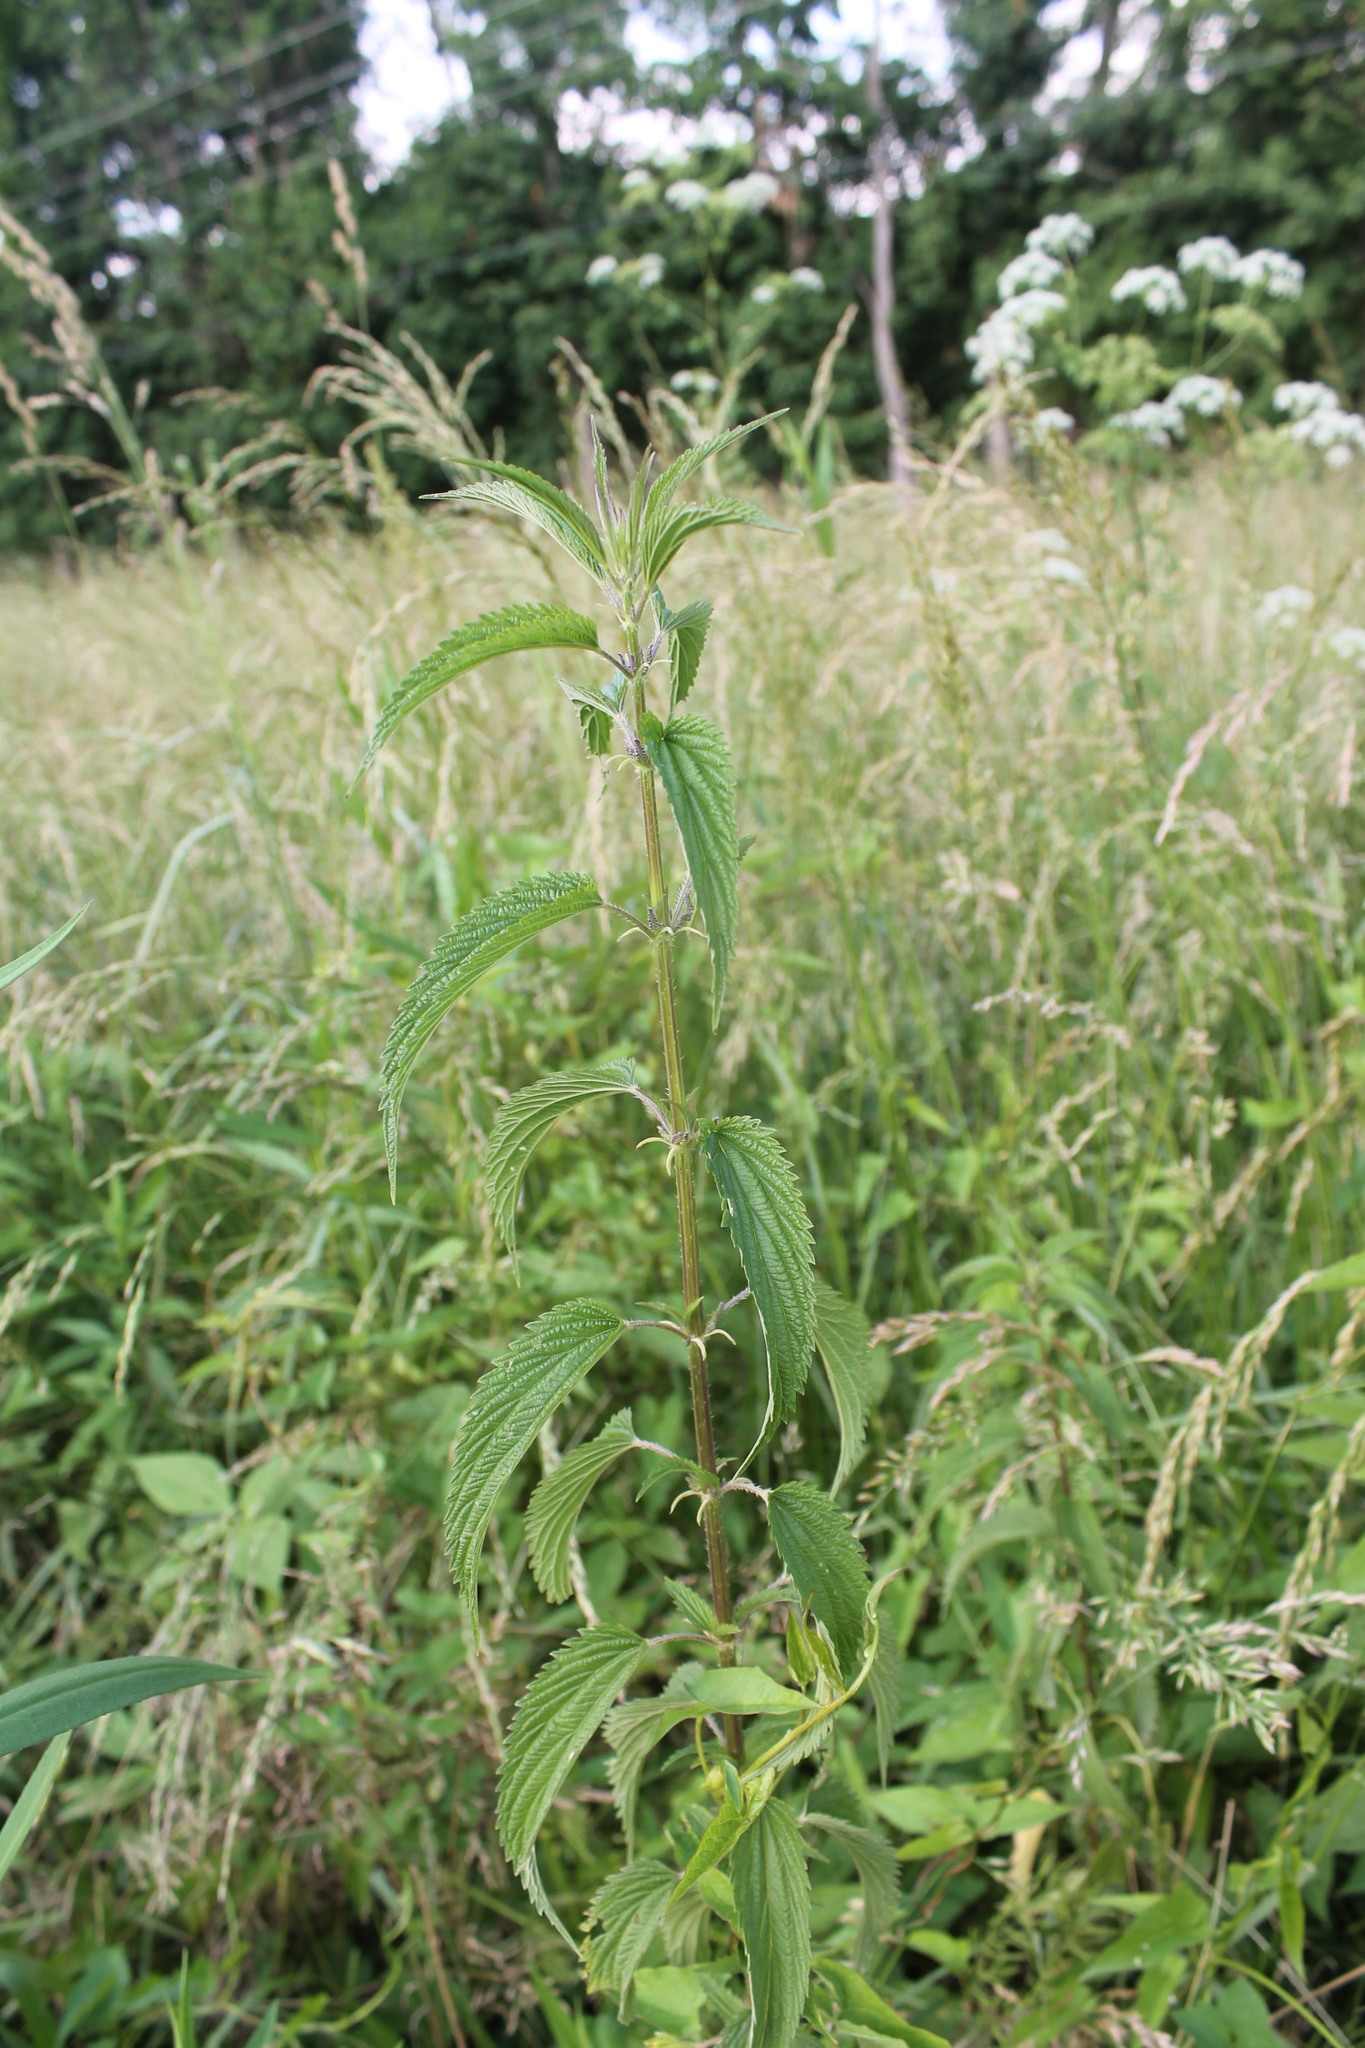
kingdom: Plantae
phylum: Tracheophyta
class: Magnoliopsida
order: Rosales
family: Urticaceae
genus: Urtica
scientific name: Urtica dioica
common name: Common nettle
